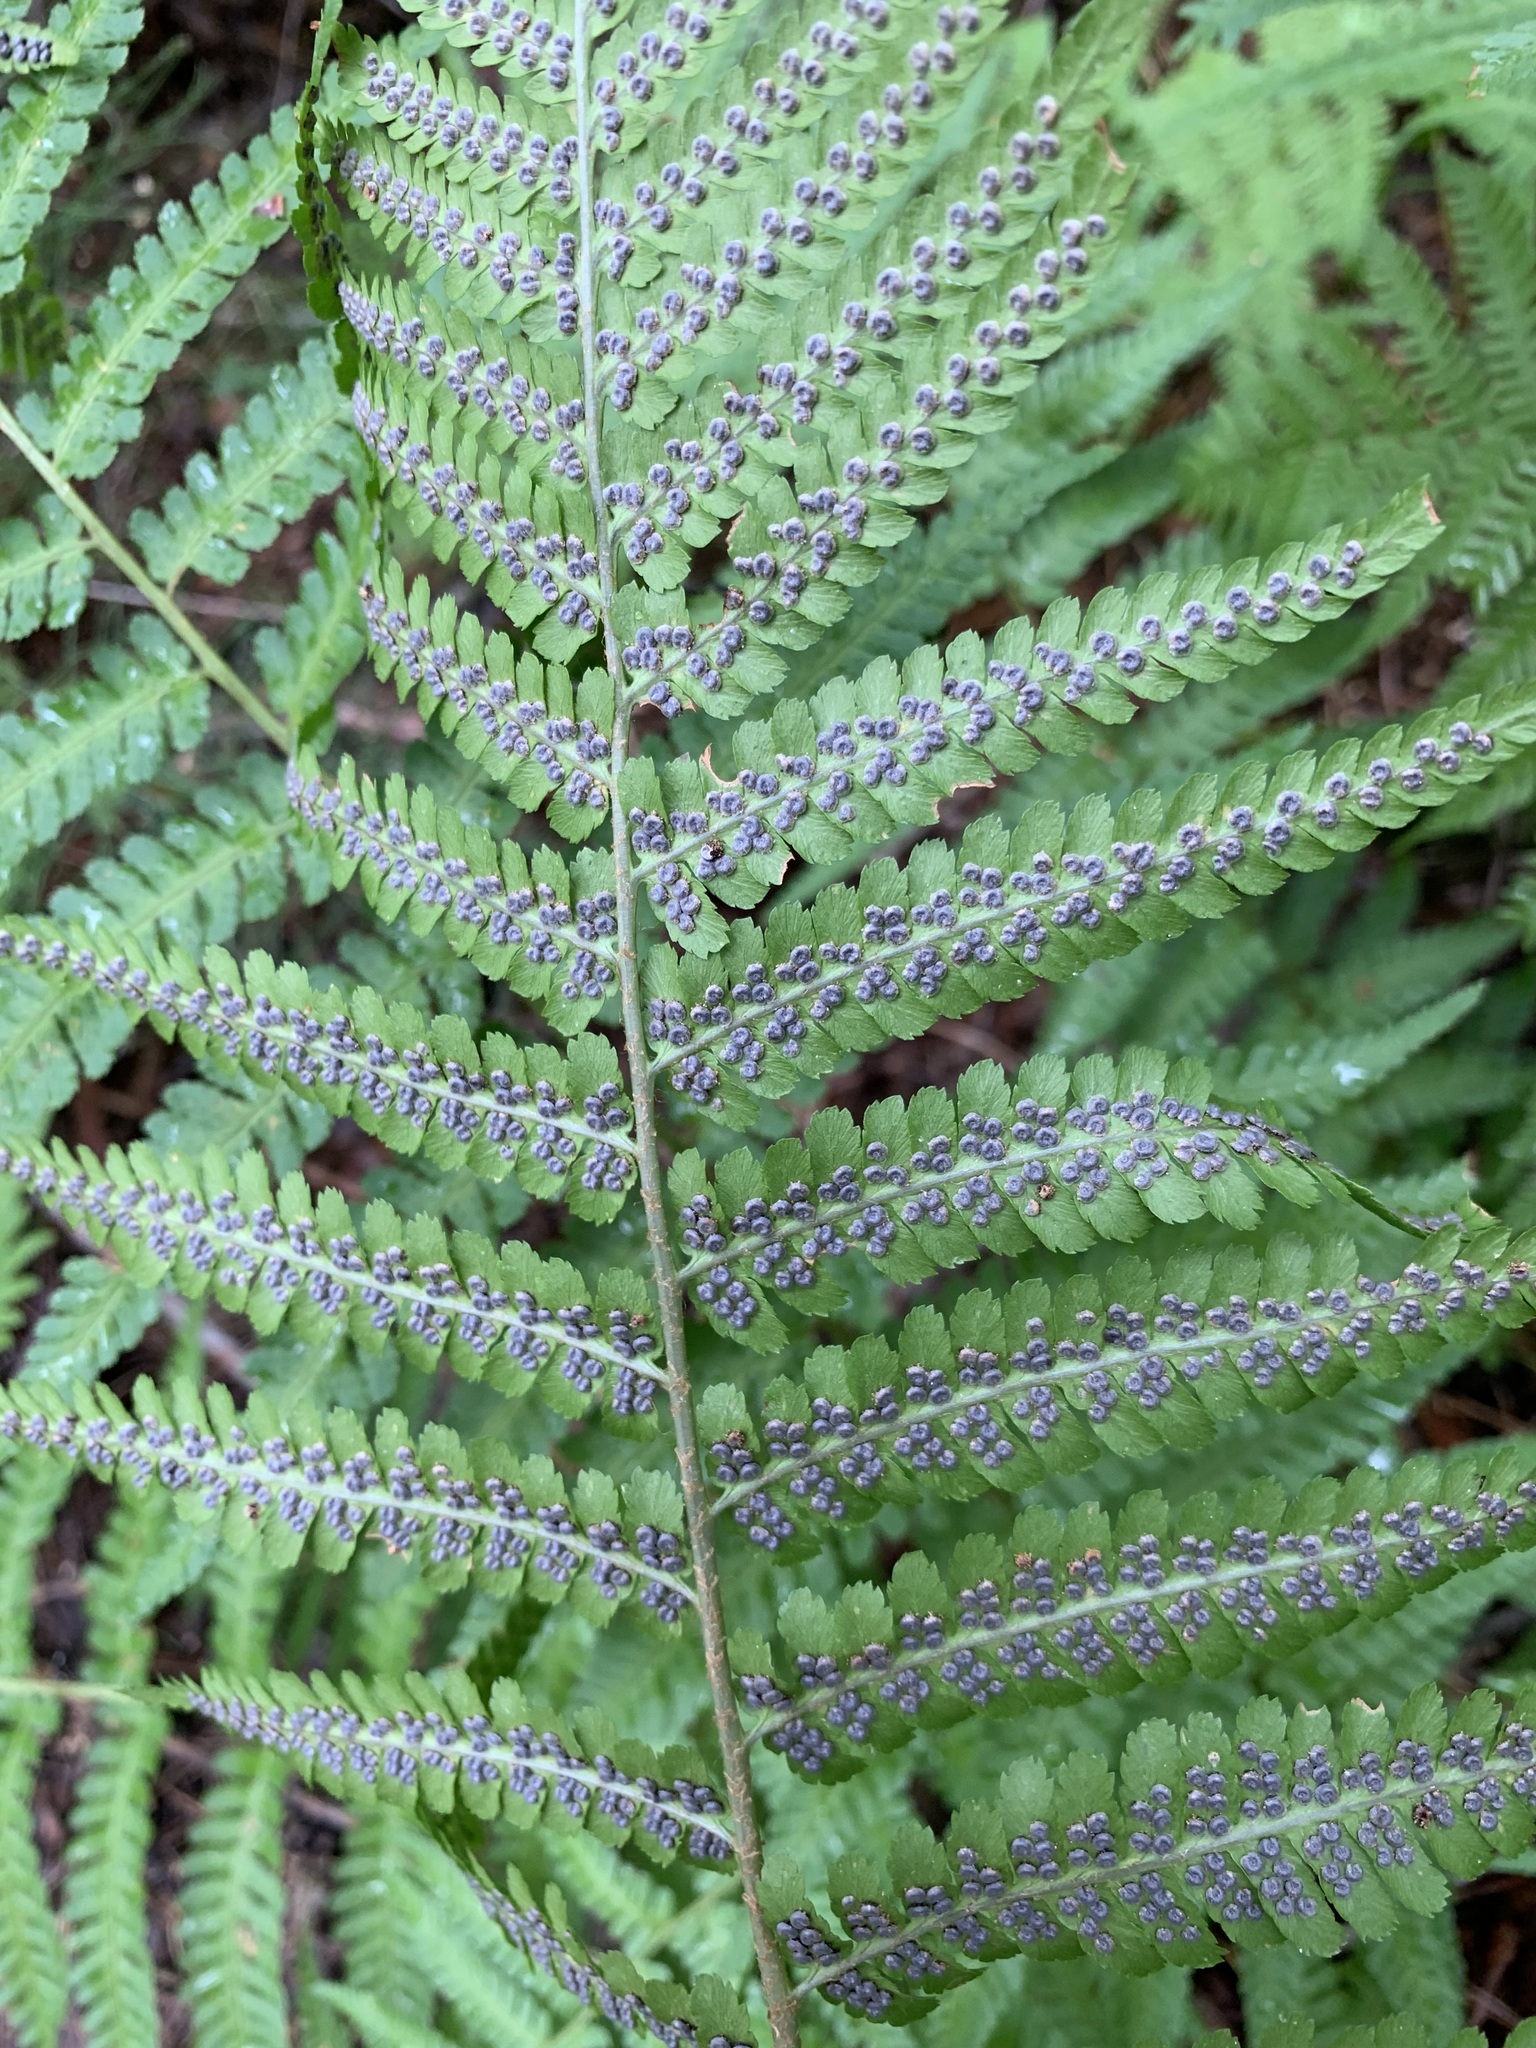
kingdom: Plantae
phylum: Tracheophyta
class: Polypodiopsida
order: Polypodiales
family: Dryopteridaceae
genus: Dryopteris
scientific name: Dryopteris filix-mas
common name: Male fern
